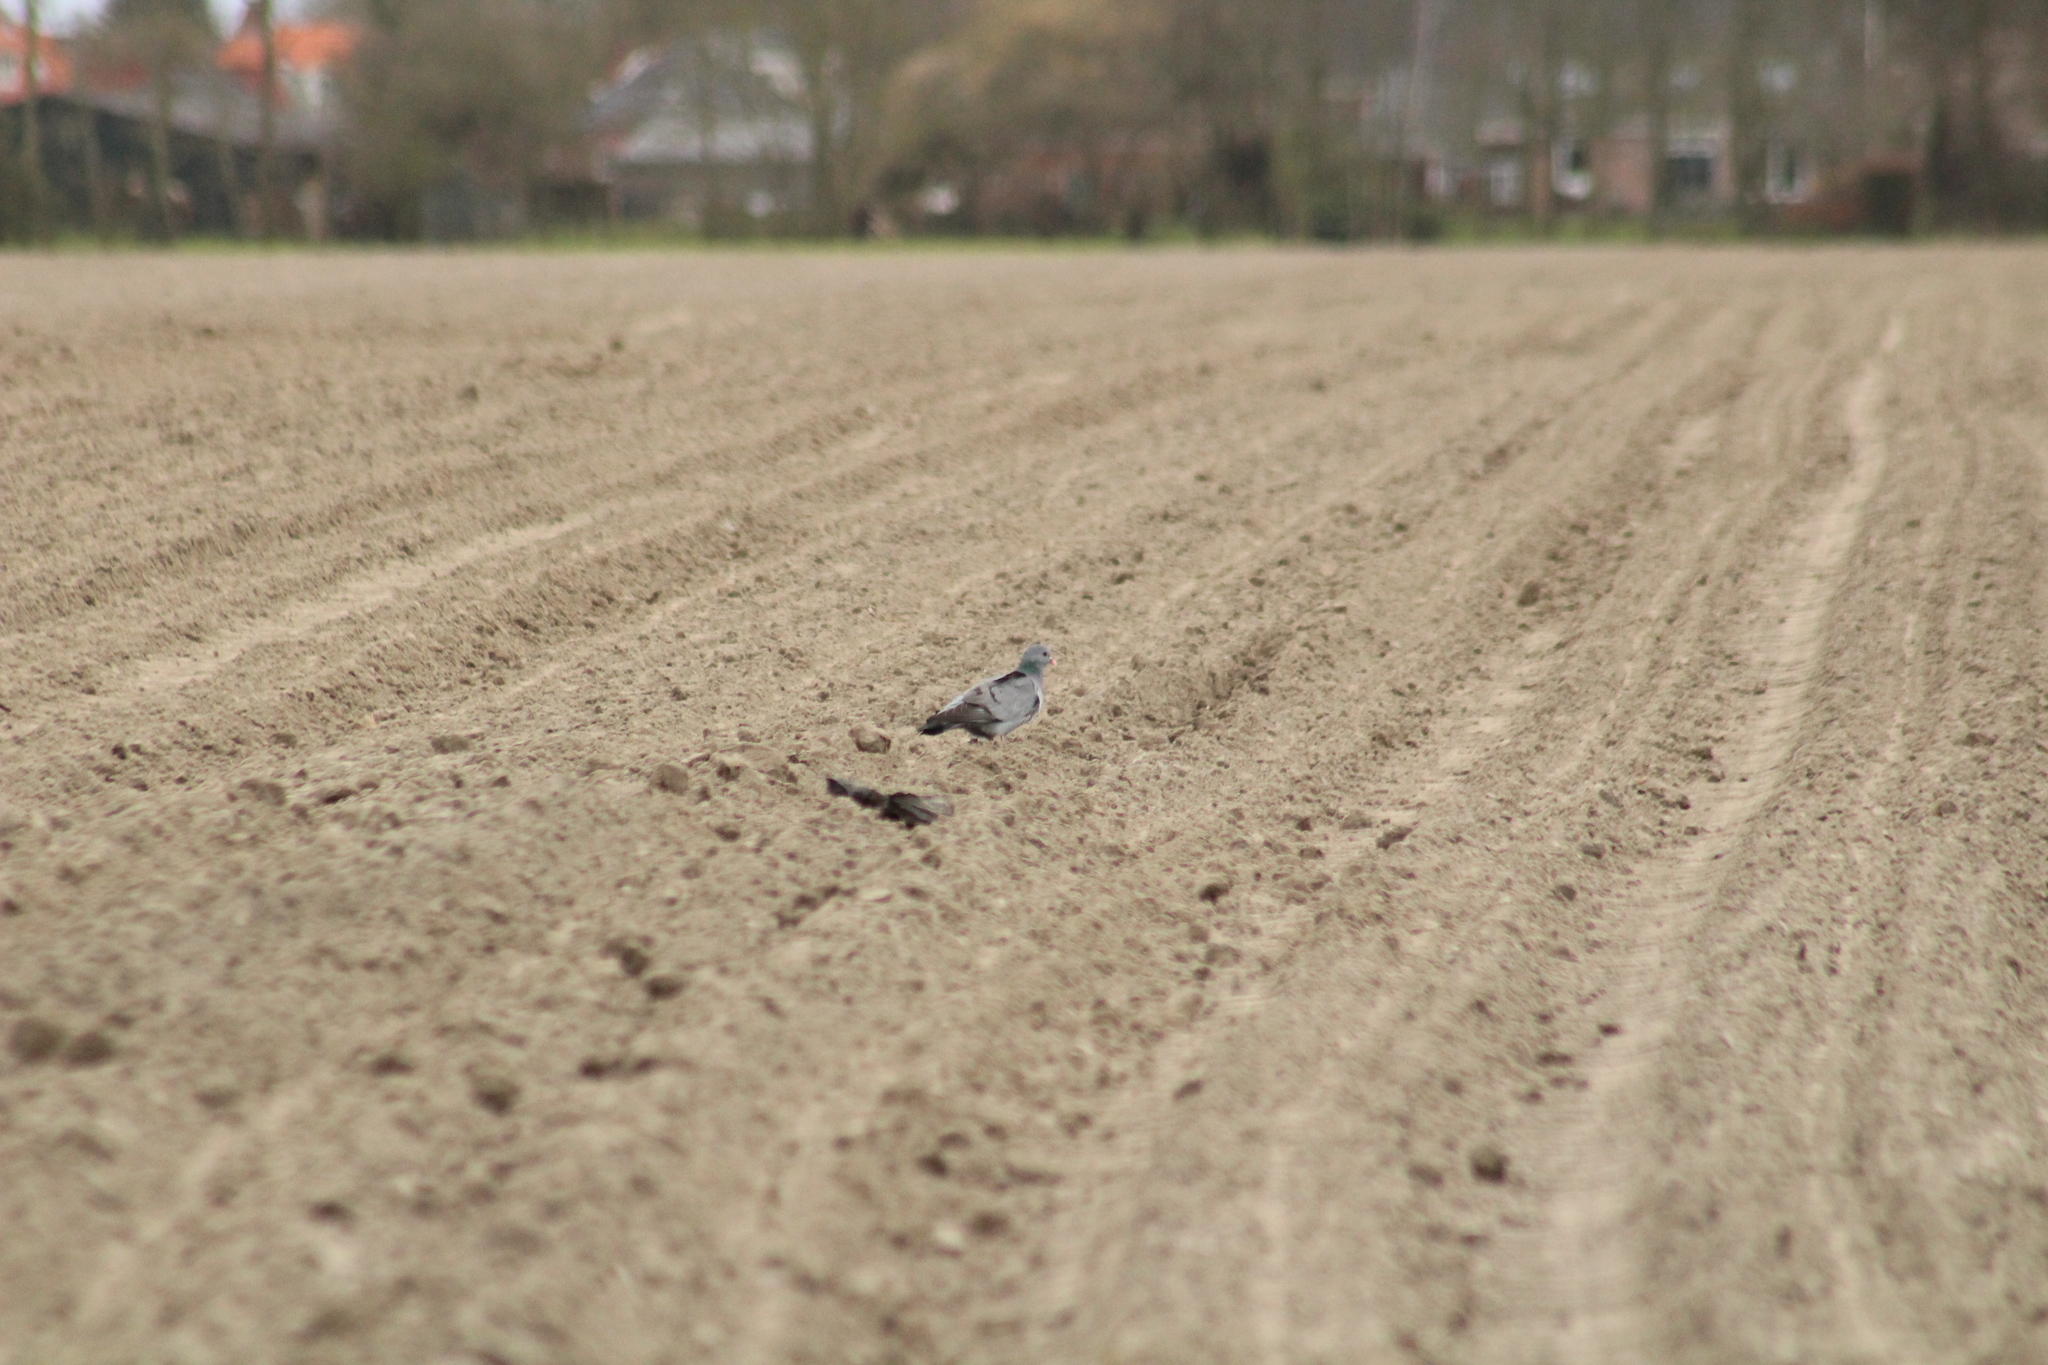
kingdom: Animalia
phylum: Chordata
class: Aves
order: Columbiformes
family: Columbidae
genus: Columba
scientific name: Columba oenas
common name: Stock dove
